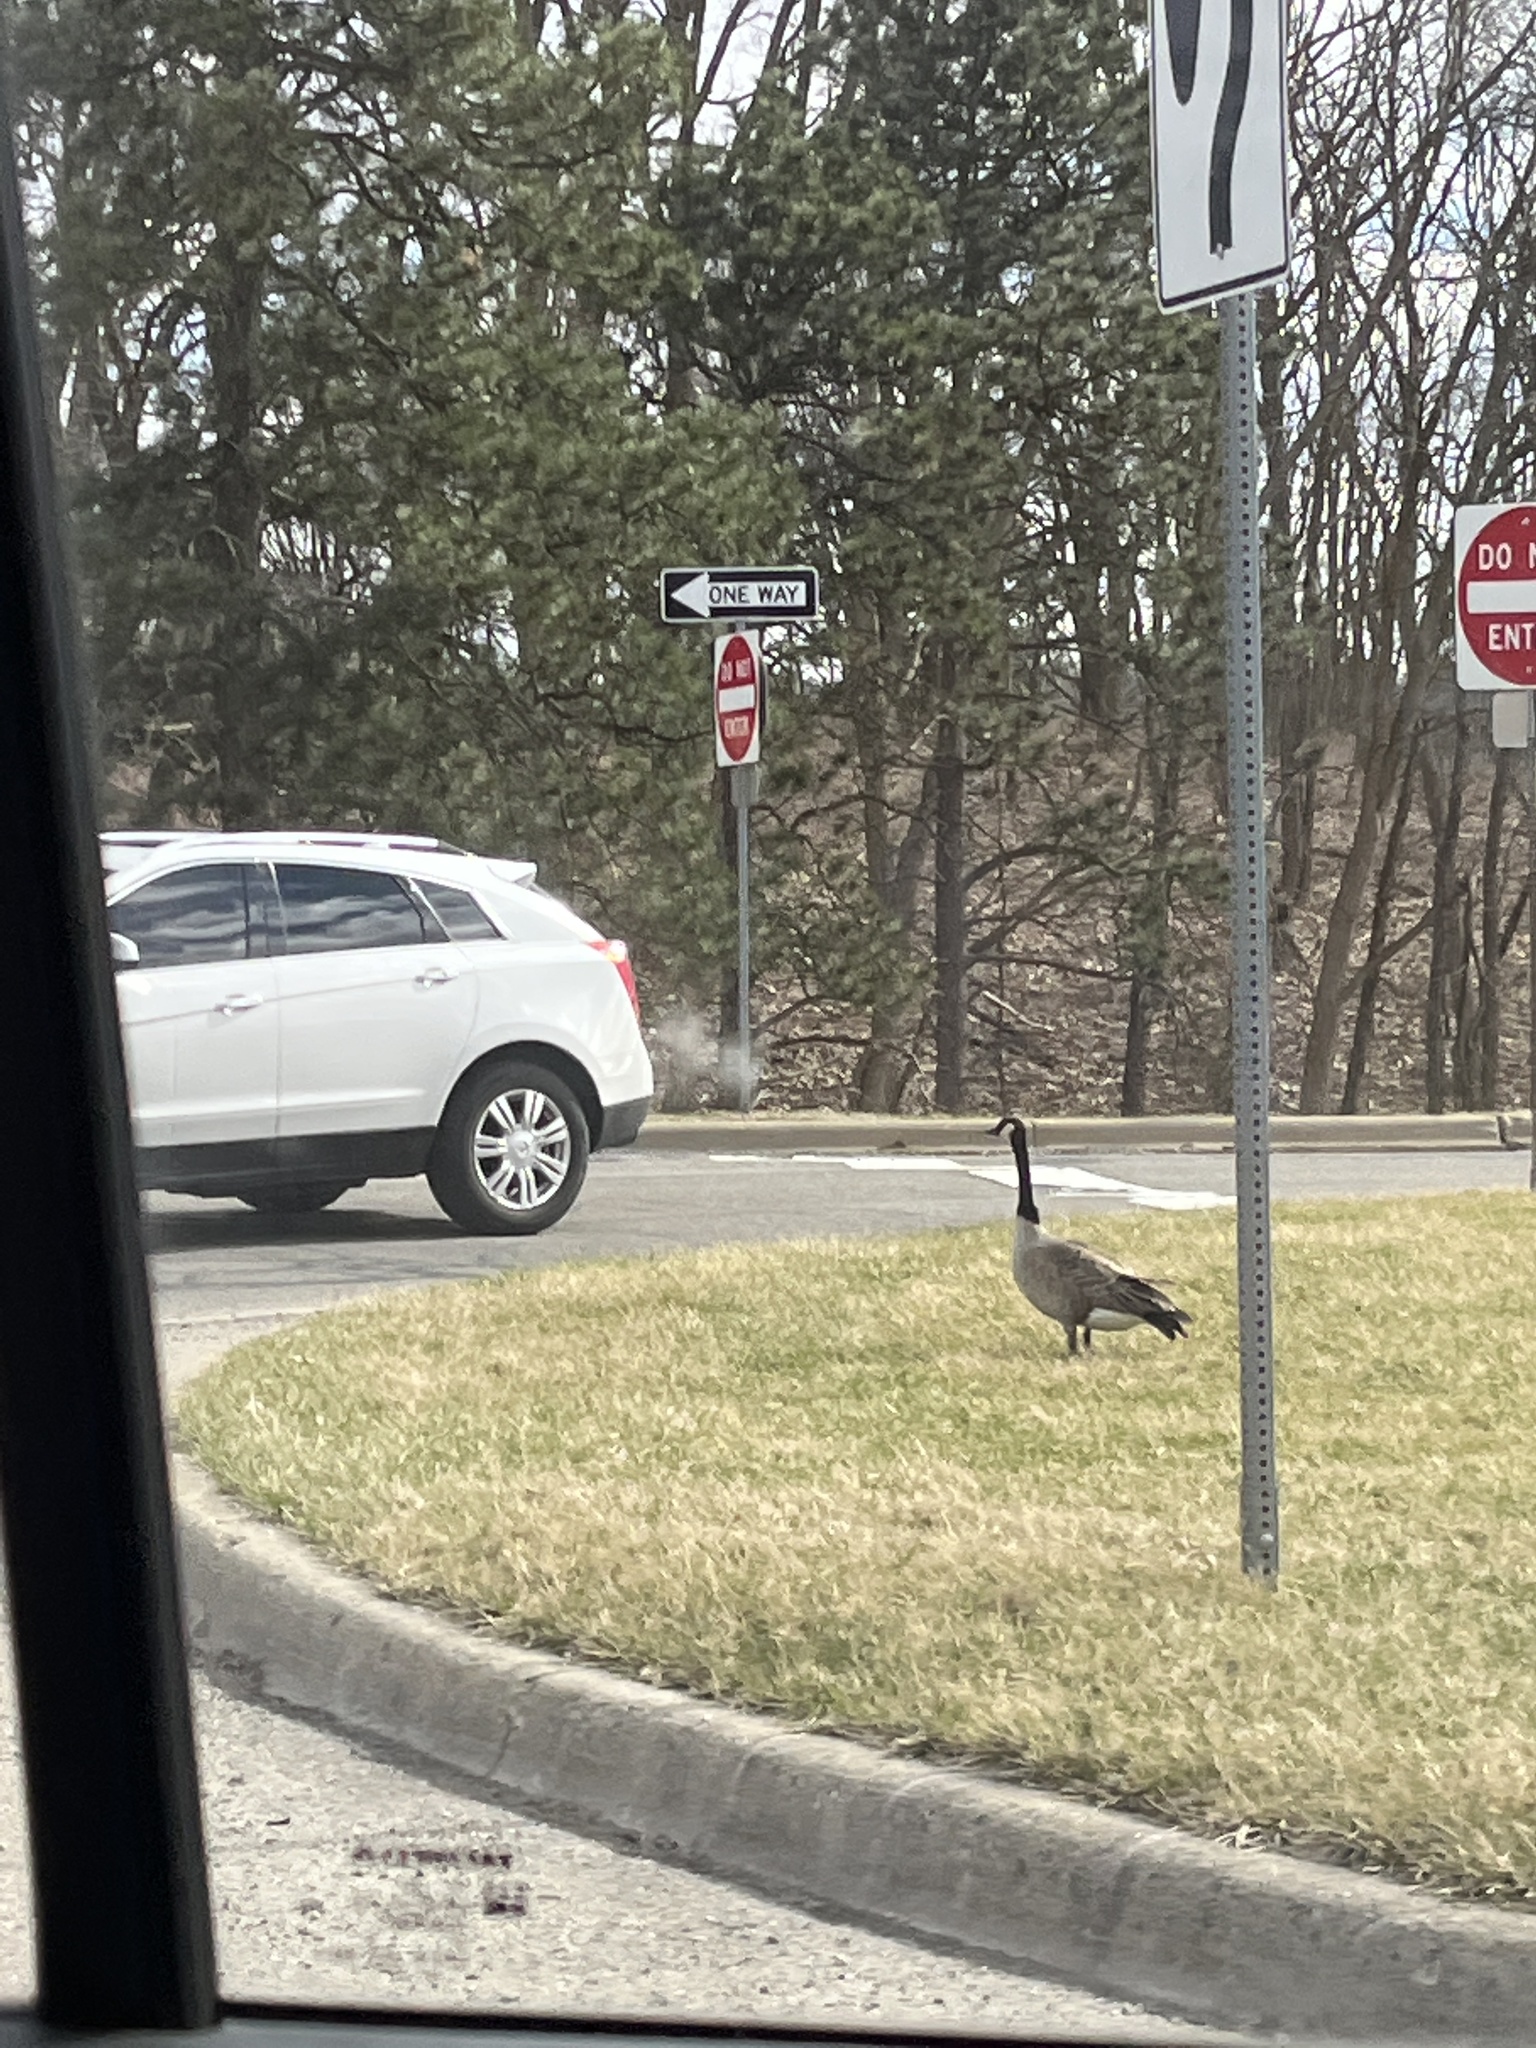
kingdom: Animalia
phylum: Chordata
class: Aves
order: Anseriformes
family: Anatidae
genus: Branta
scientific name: Branta canadensis
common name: Canada goose
